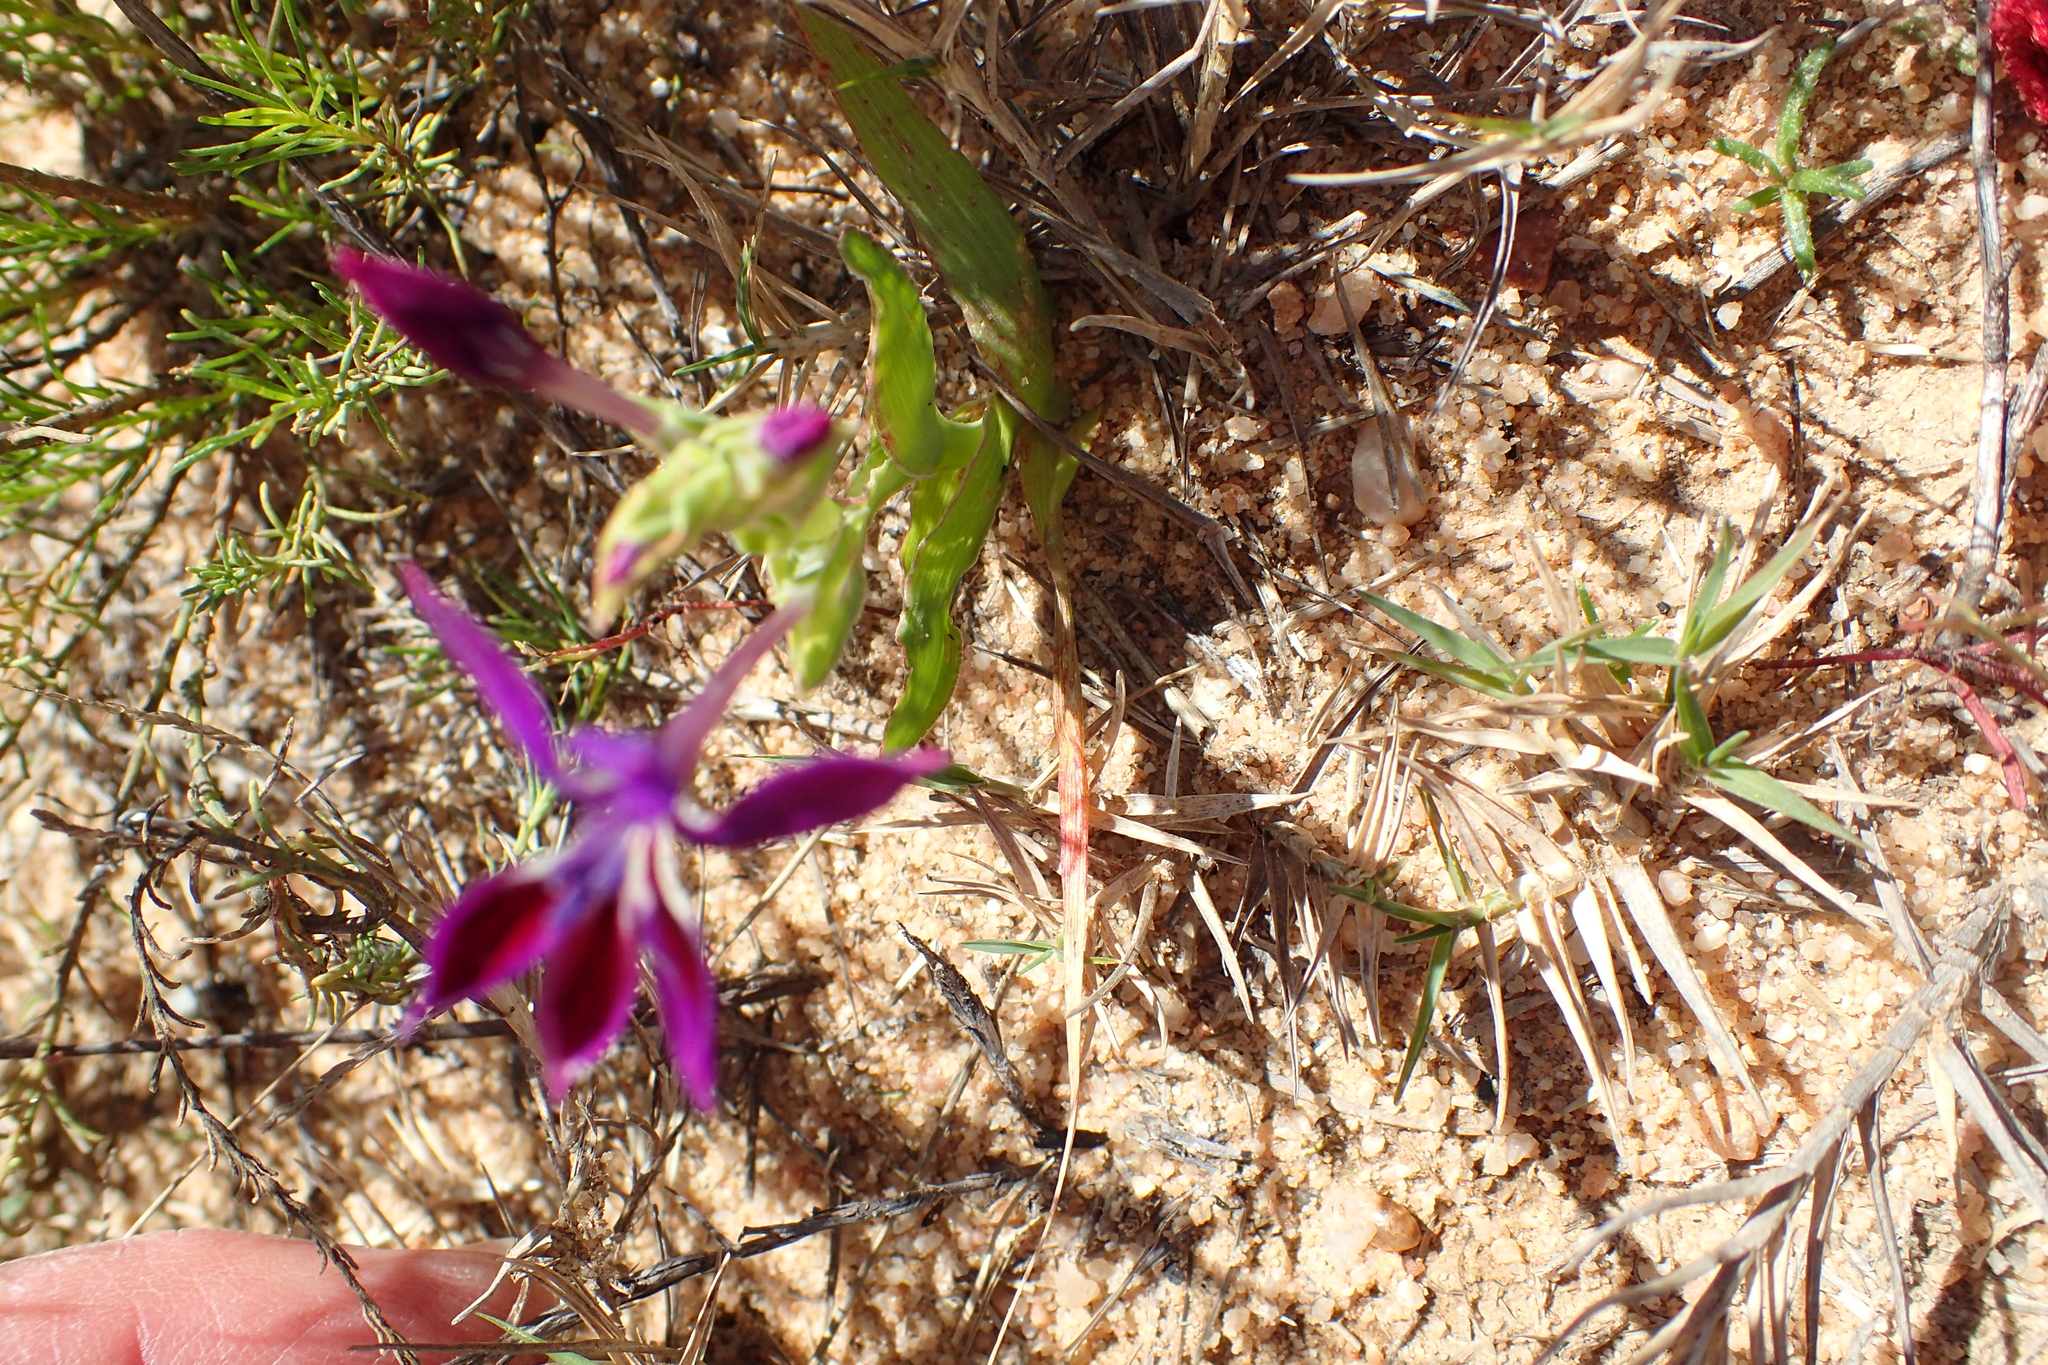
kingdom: Plantae
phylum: Tracheophyta
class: Liliopsida
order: Asparagales
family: Iridaceae
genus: Lapeirousia
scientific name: Lapeirousia jacquinii
